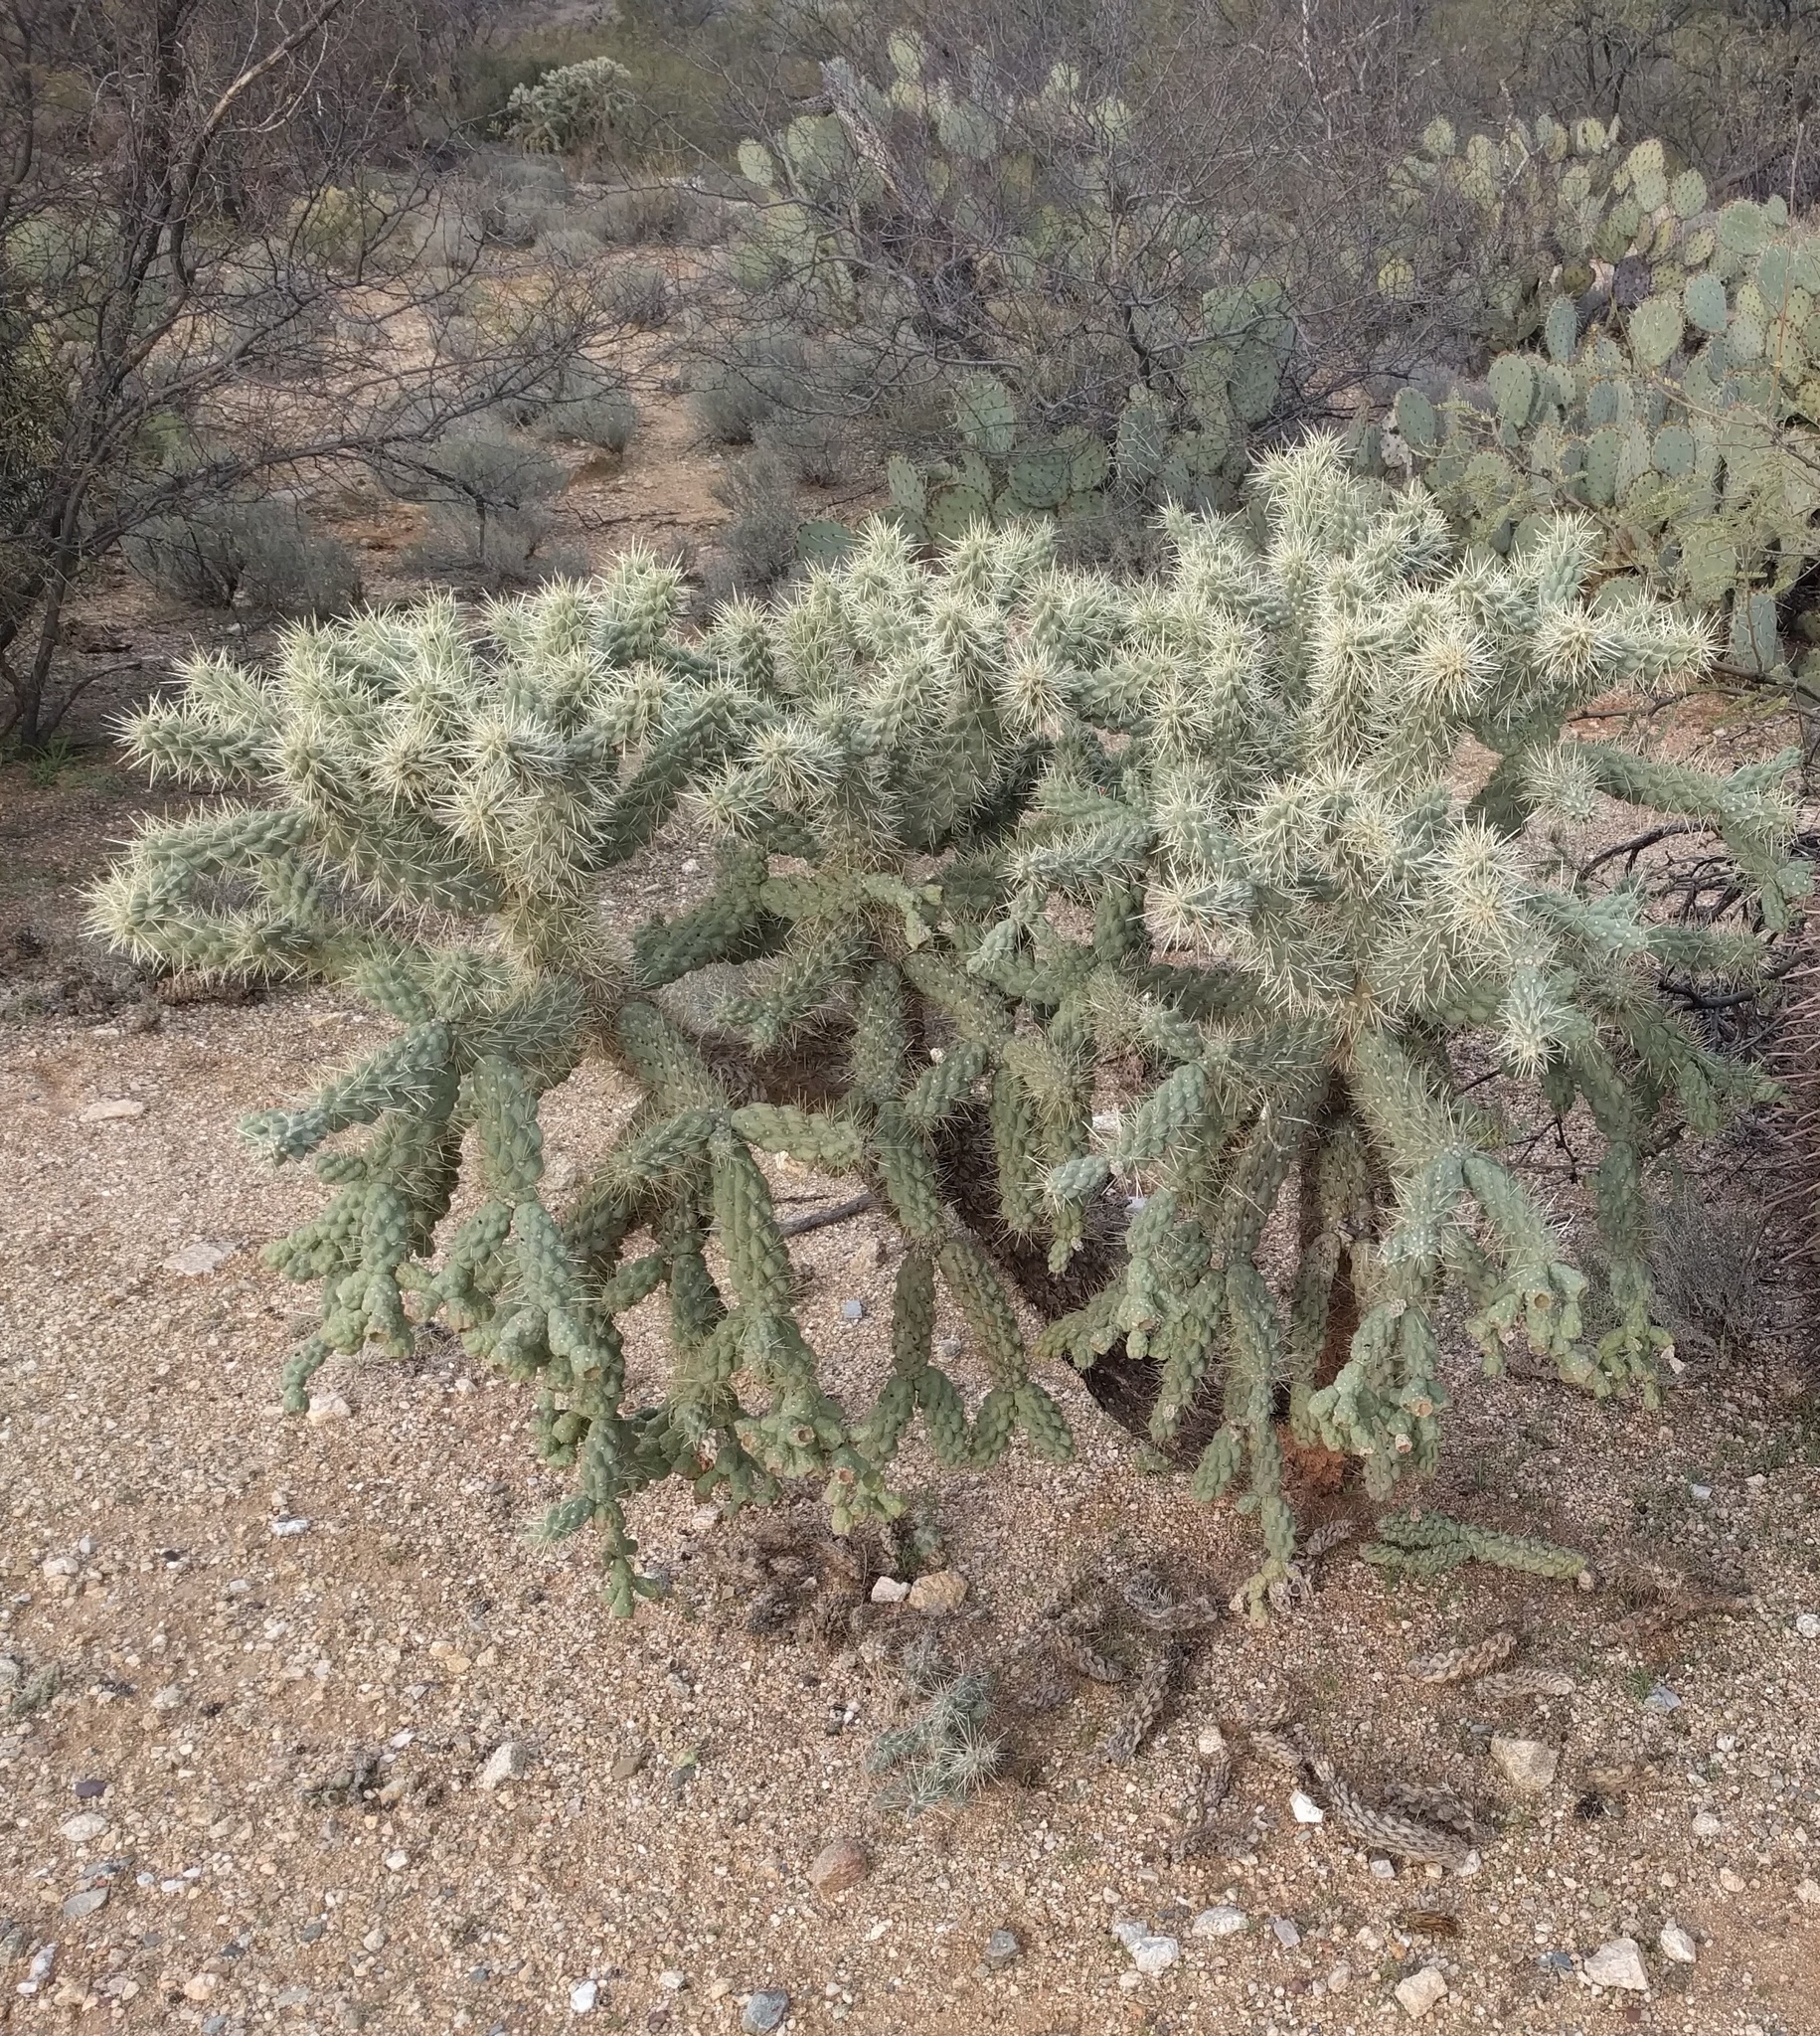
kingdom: Plantae
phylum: Tracheophyta
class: Magnoliopsida
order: Caryophyllales
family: Cactaceae
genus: Cylindropuntia
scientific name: Cylindropuntia fulgida
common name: Jumping cholla
